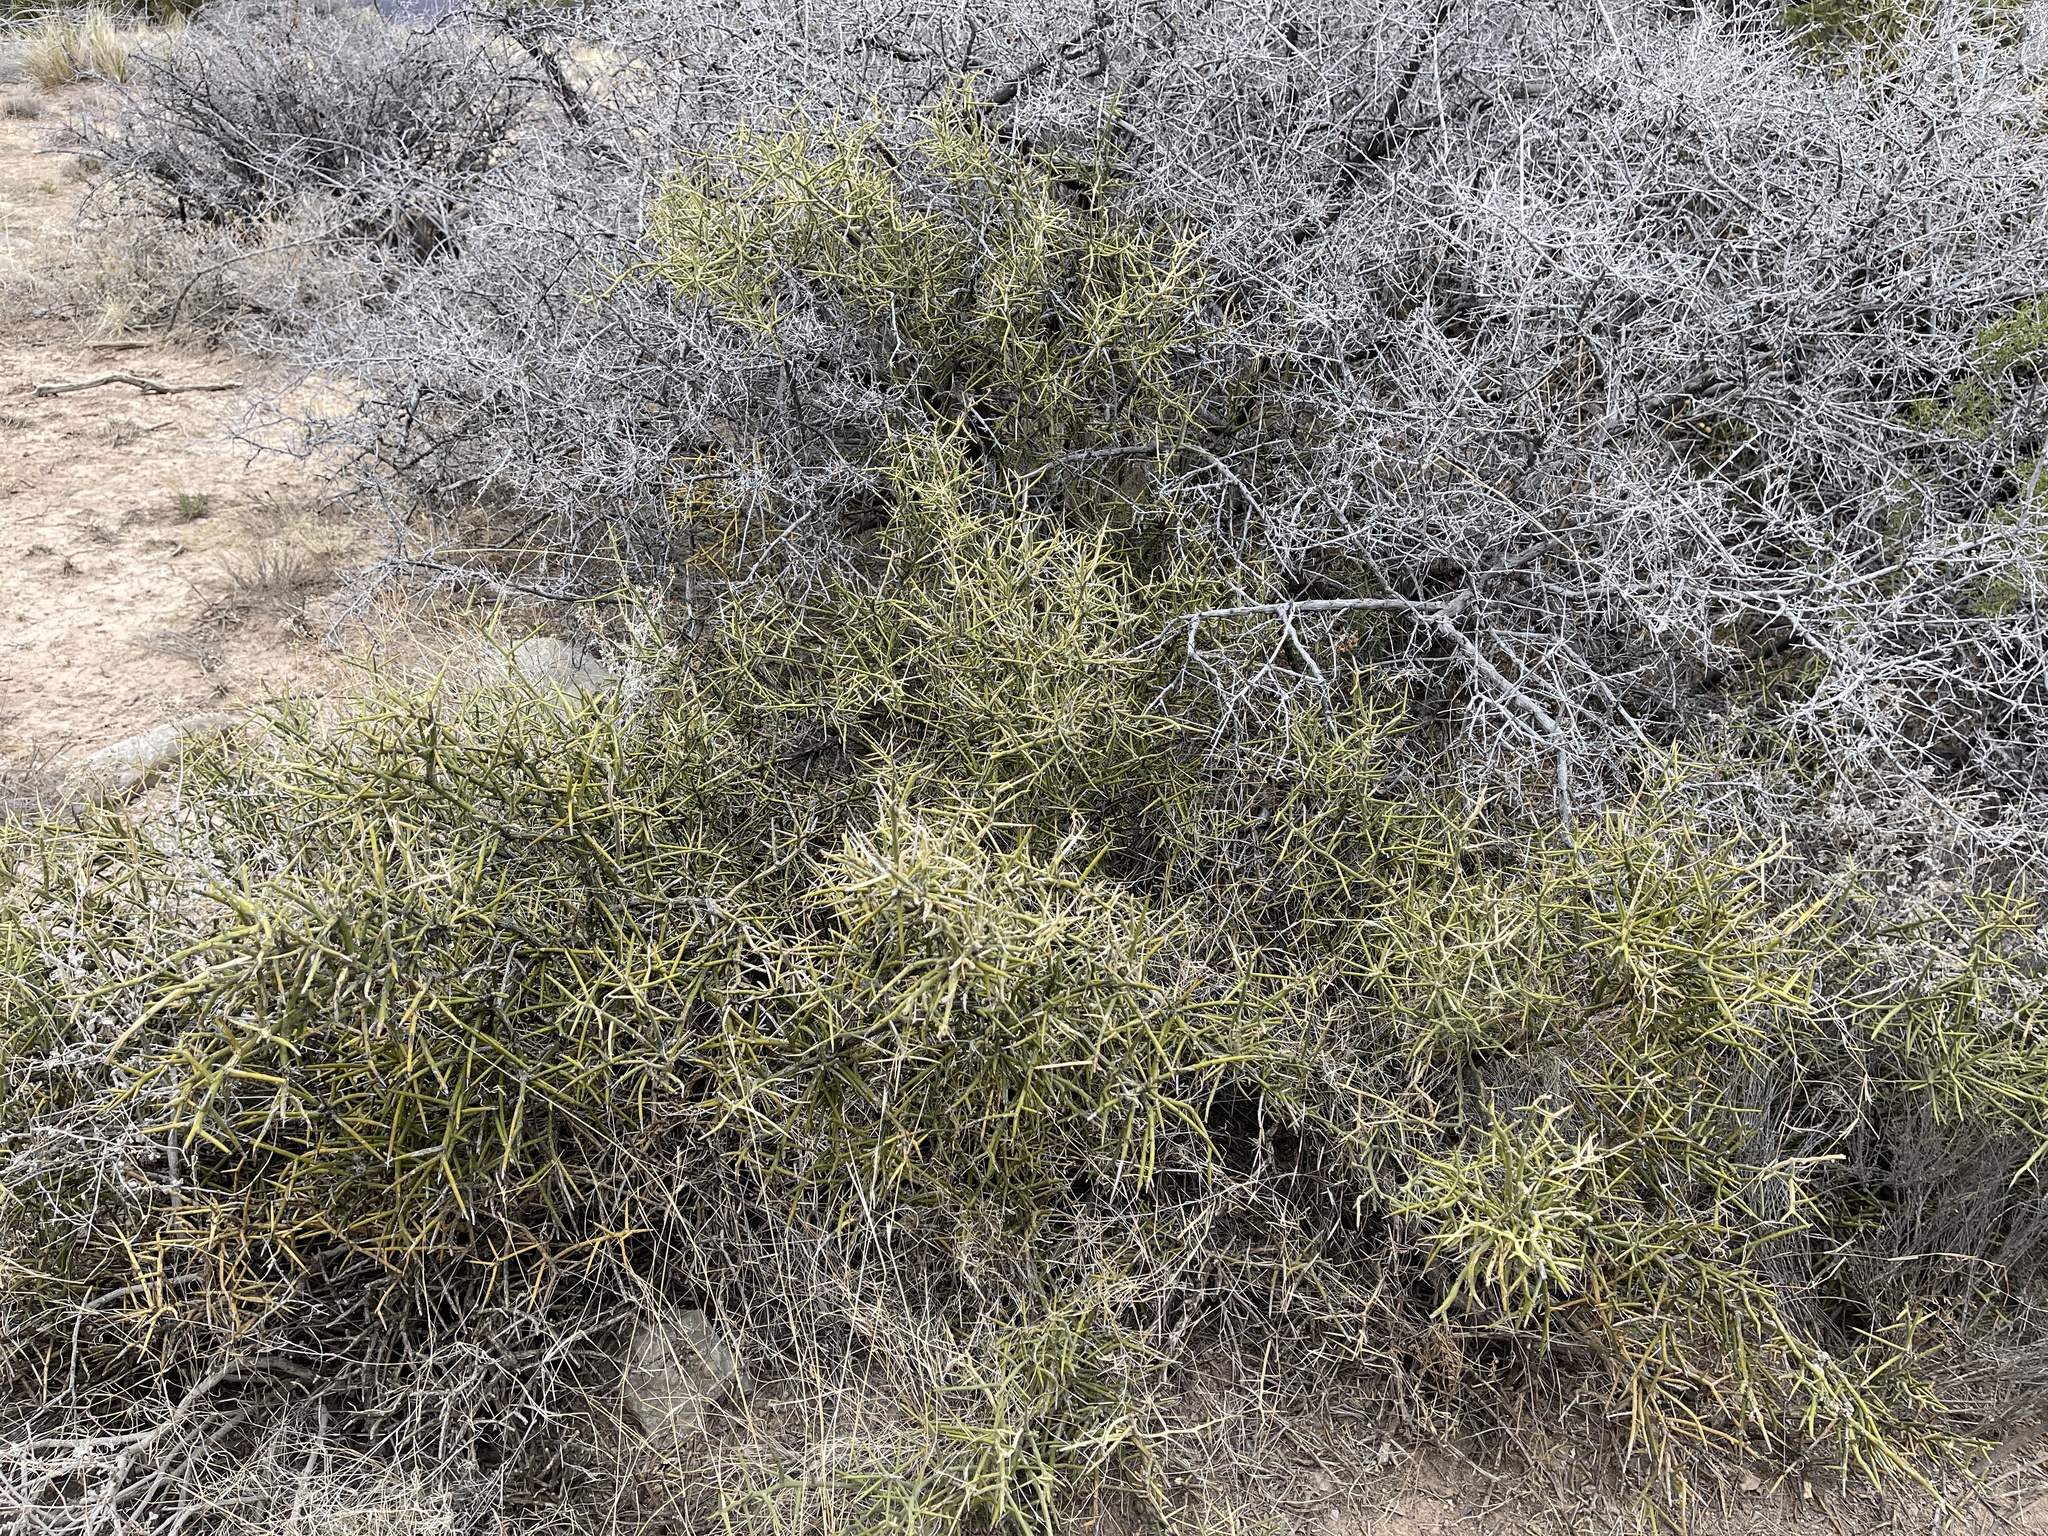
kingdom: Plantae
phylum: Tracheophyta
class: Magnoliopsida
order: Brassicales
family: Koeberliniaceae
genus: Koeberlinia
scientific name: Koeberlinia spinosa
